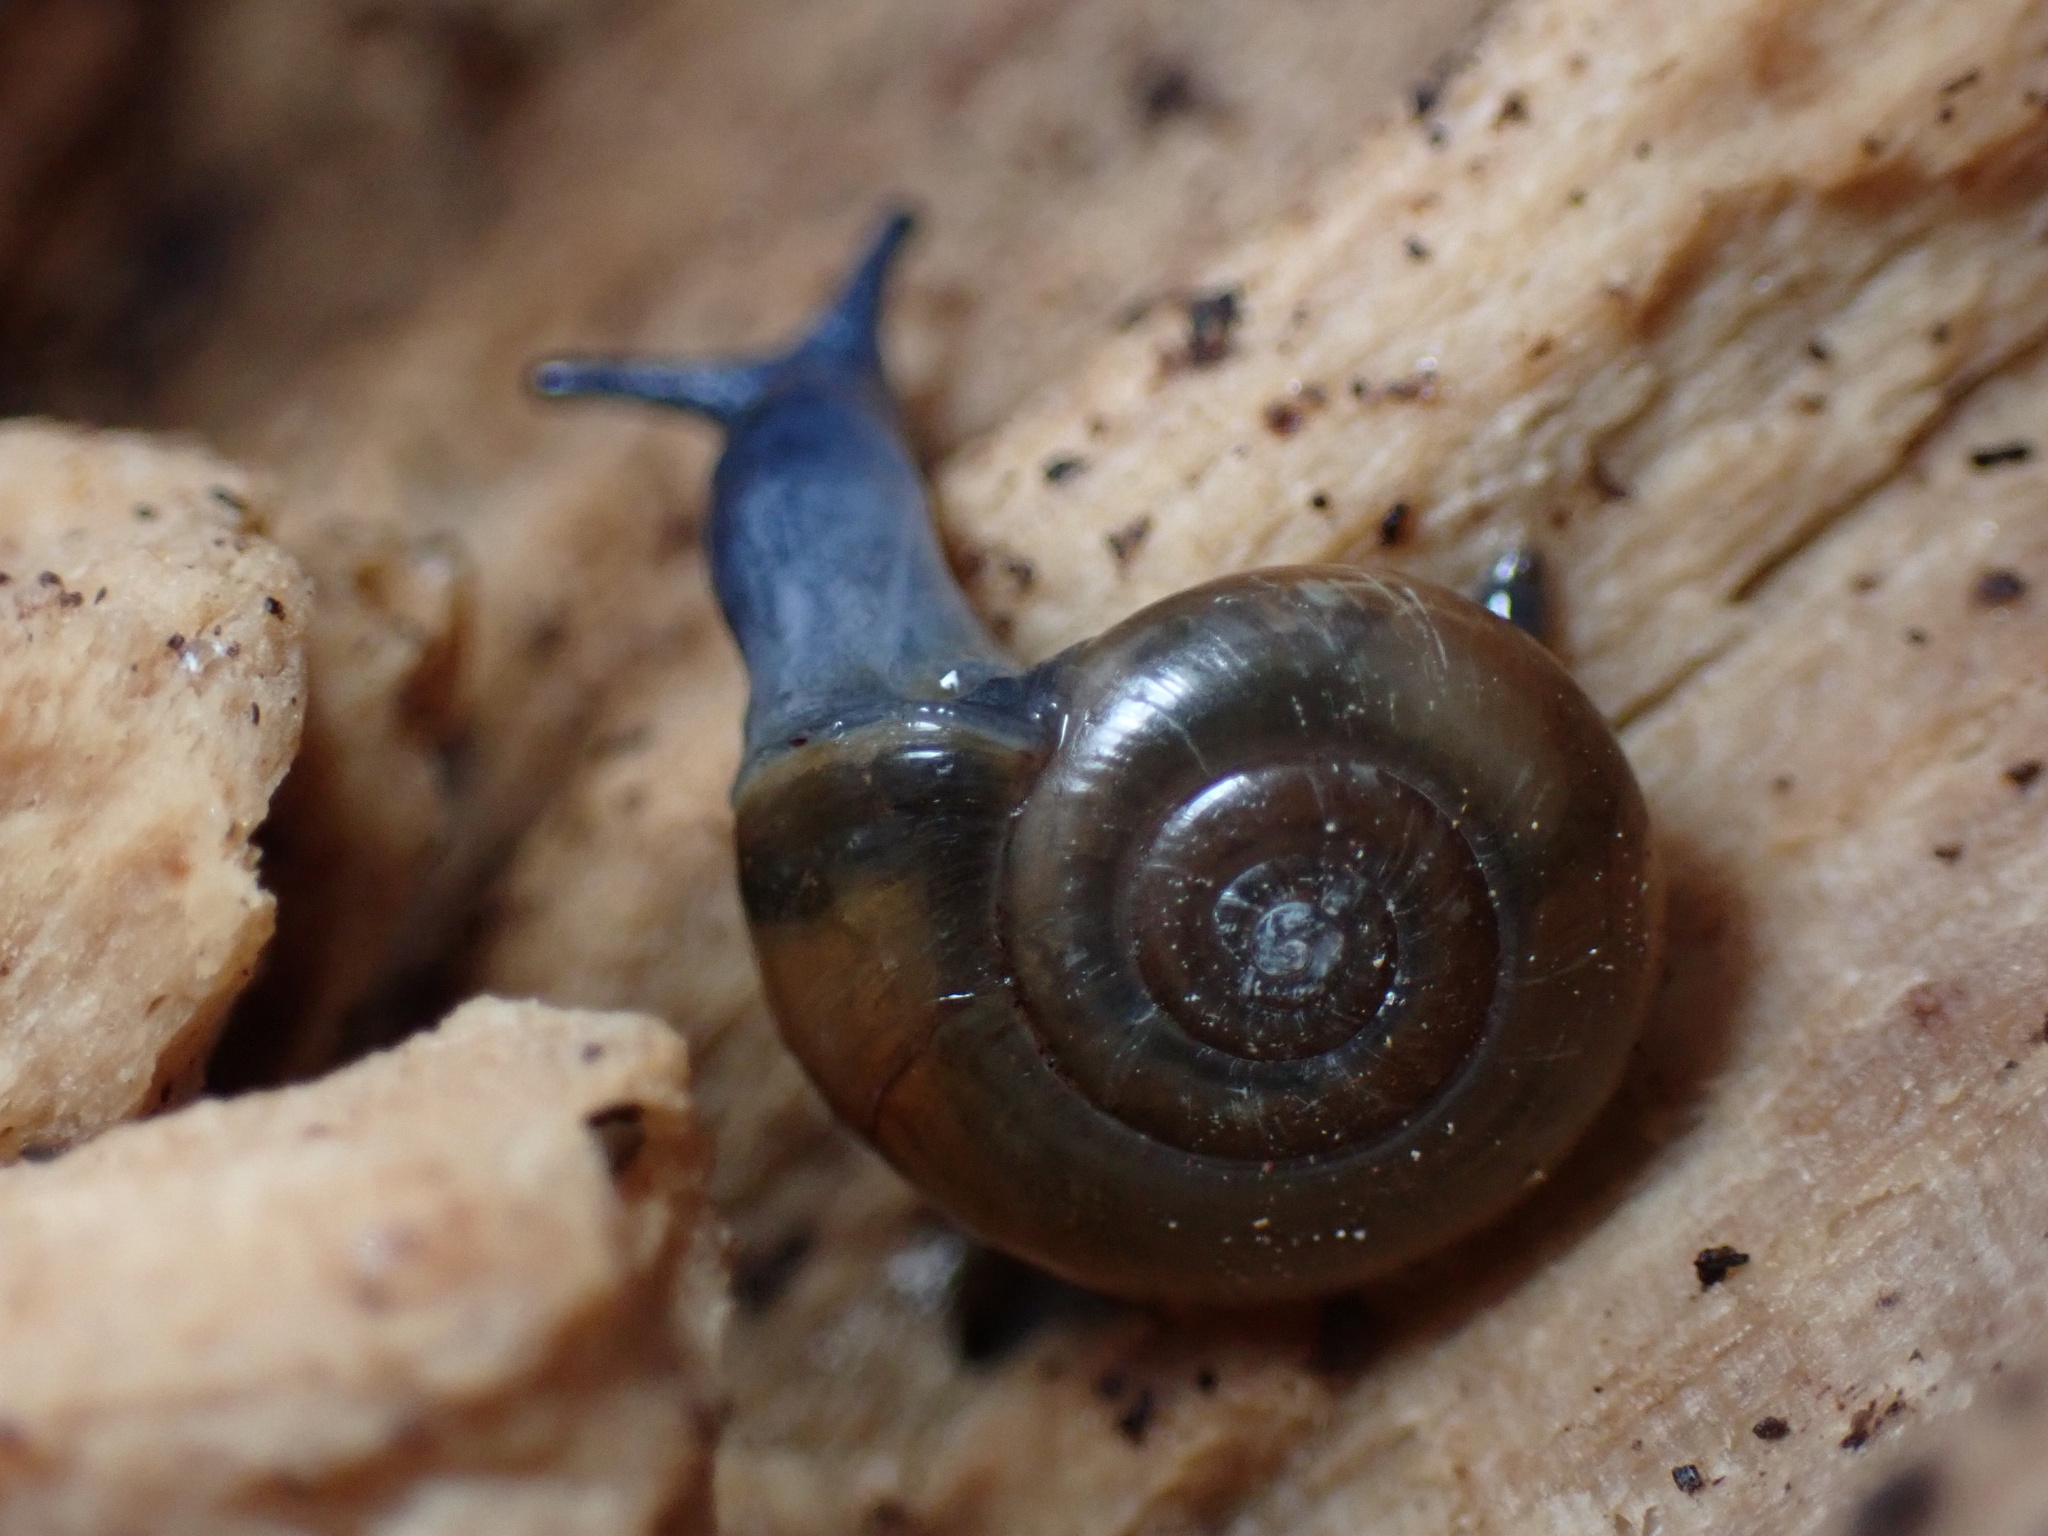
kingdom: Animalia
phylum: Mollusca
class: Gastropoda
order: Stylommatophora
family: Oxychilidae
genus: Oxychilus
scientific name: Oxychilus draparnaudi
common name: Draparnaud's glass snail
